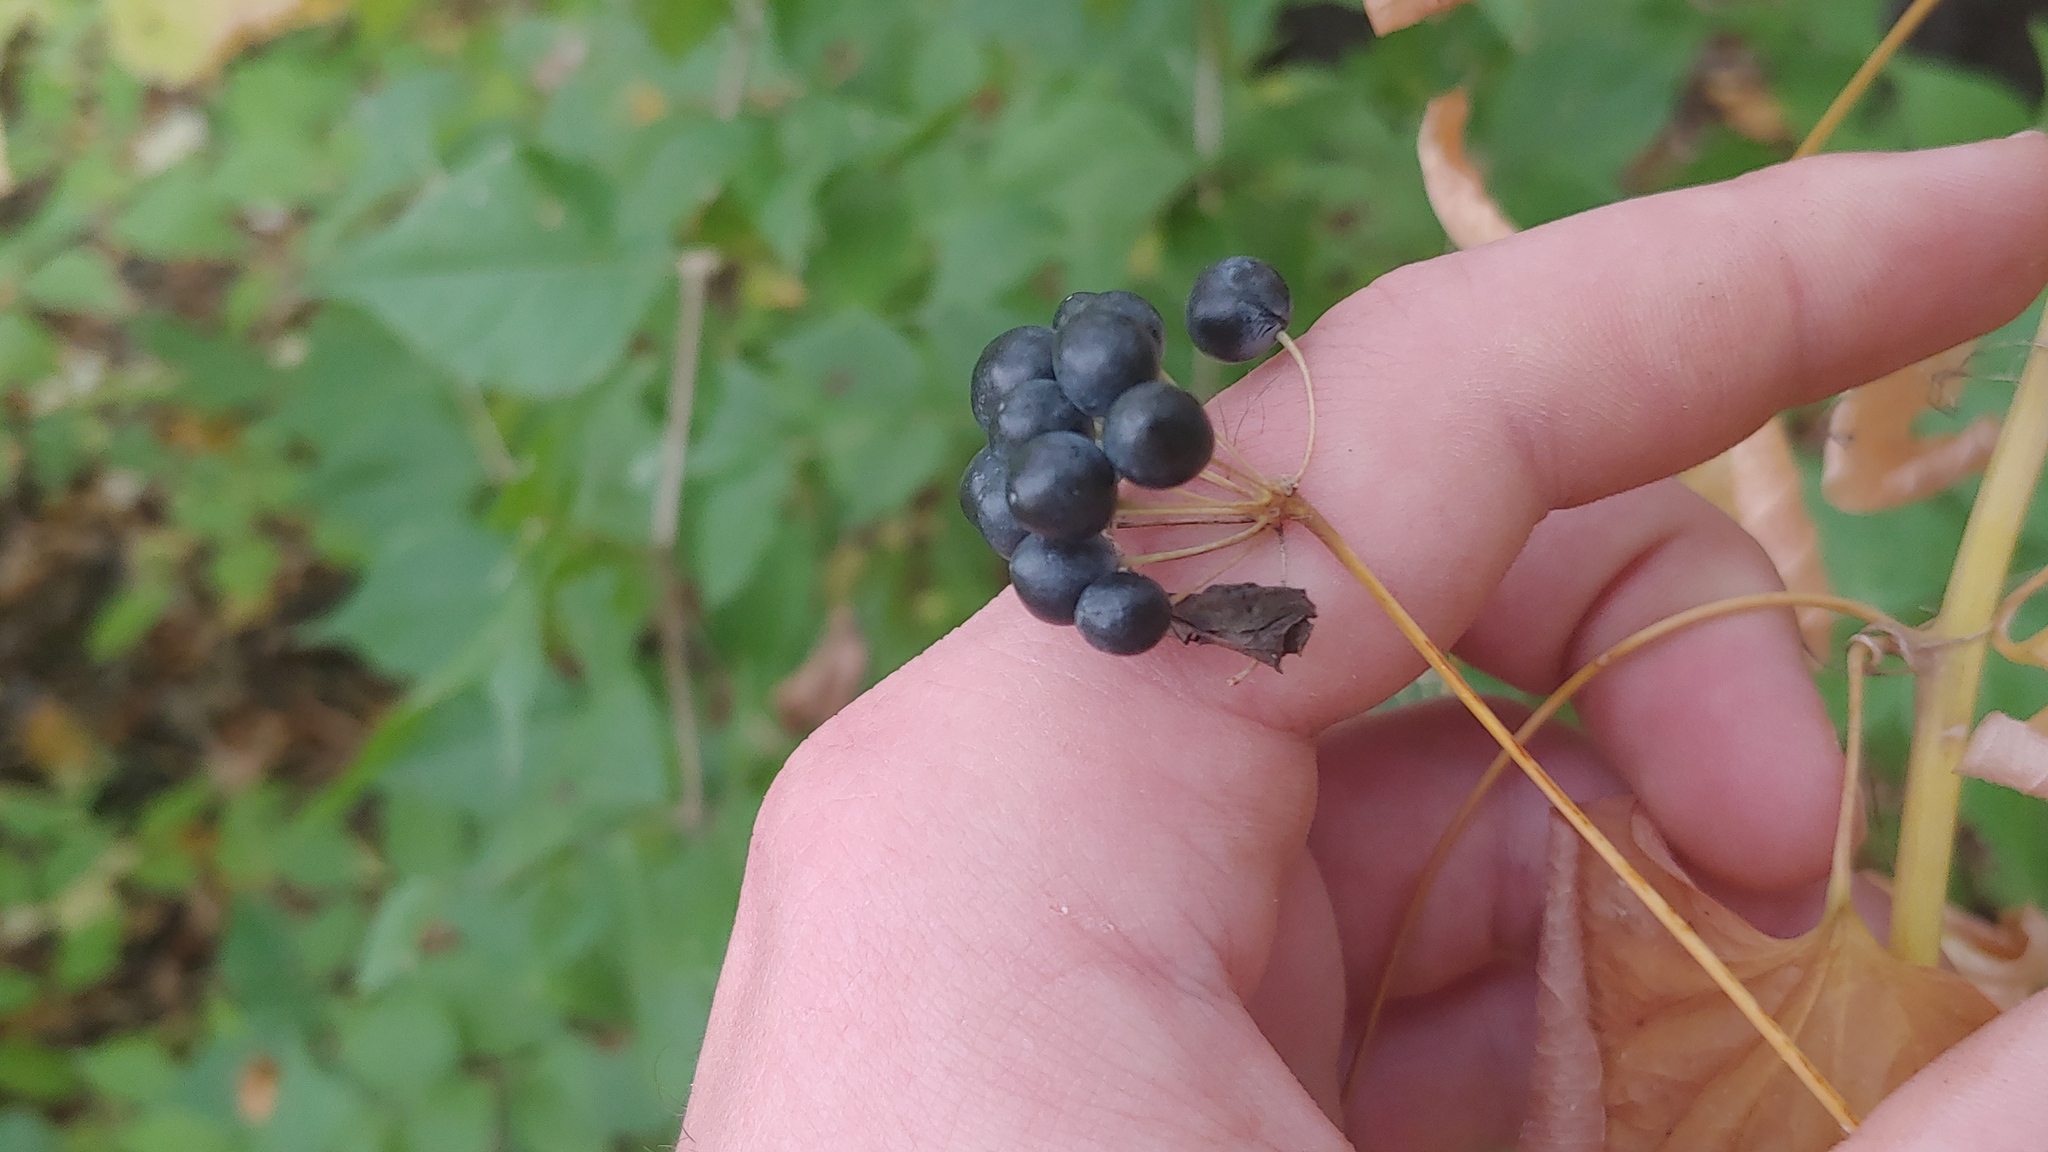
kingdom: Plantae
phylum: Tracheophyta
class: Liliopsida
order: Liliales
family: Smilacaceae
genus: Smilax
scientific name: Smilax lasioneura
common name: Blue ridge carrionflower
